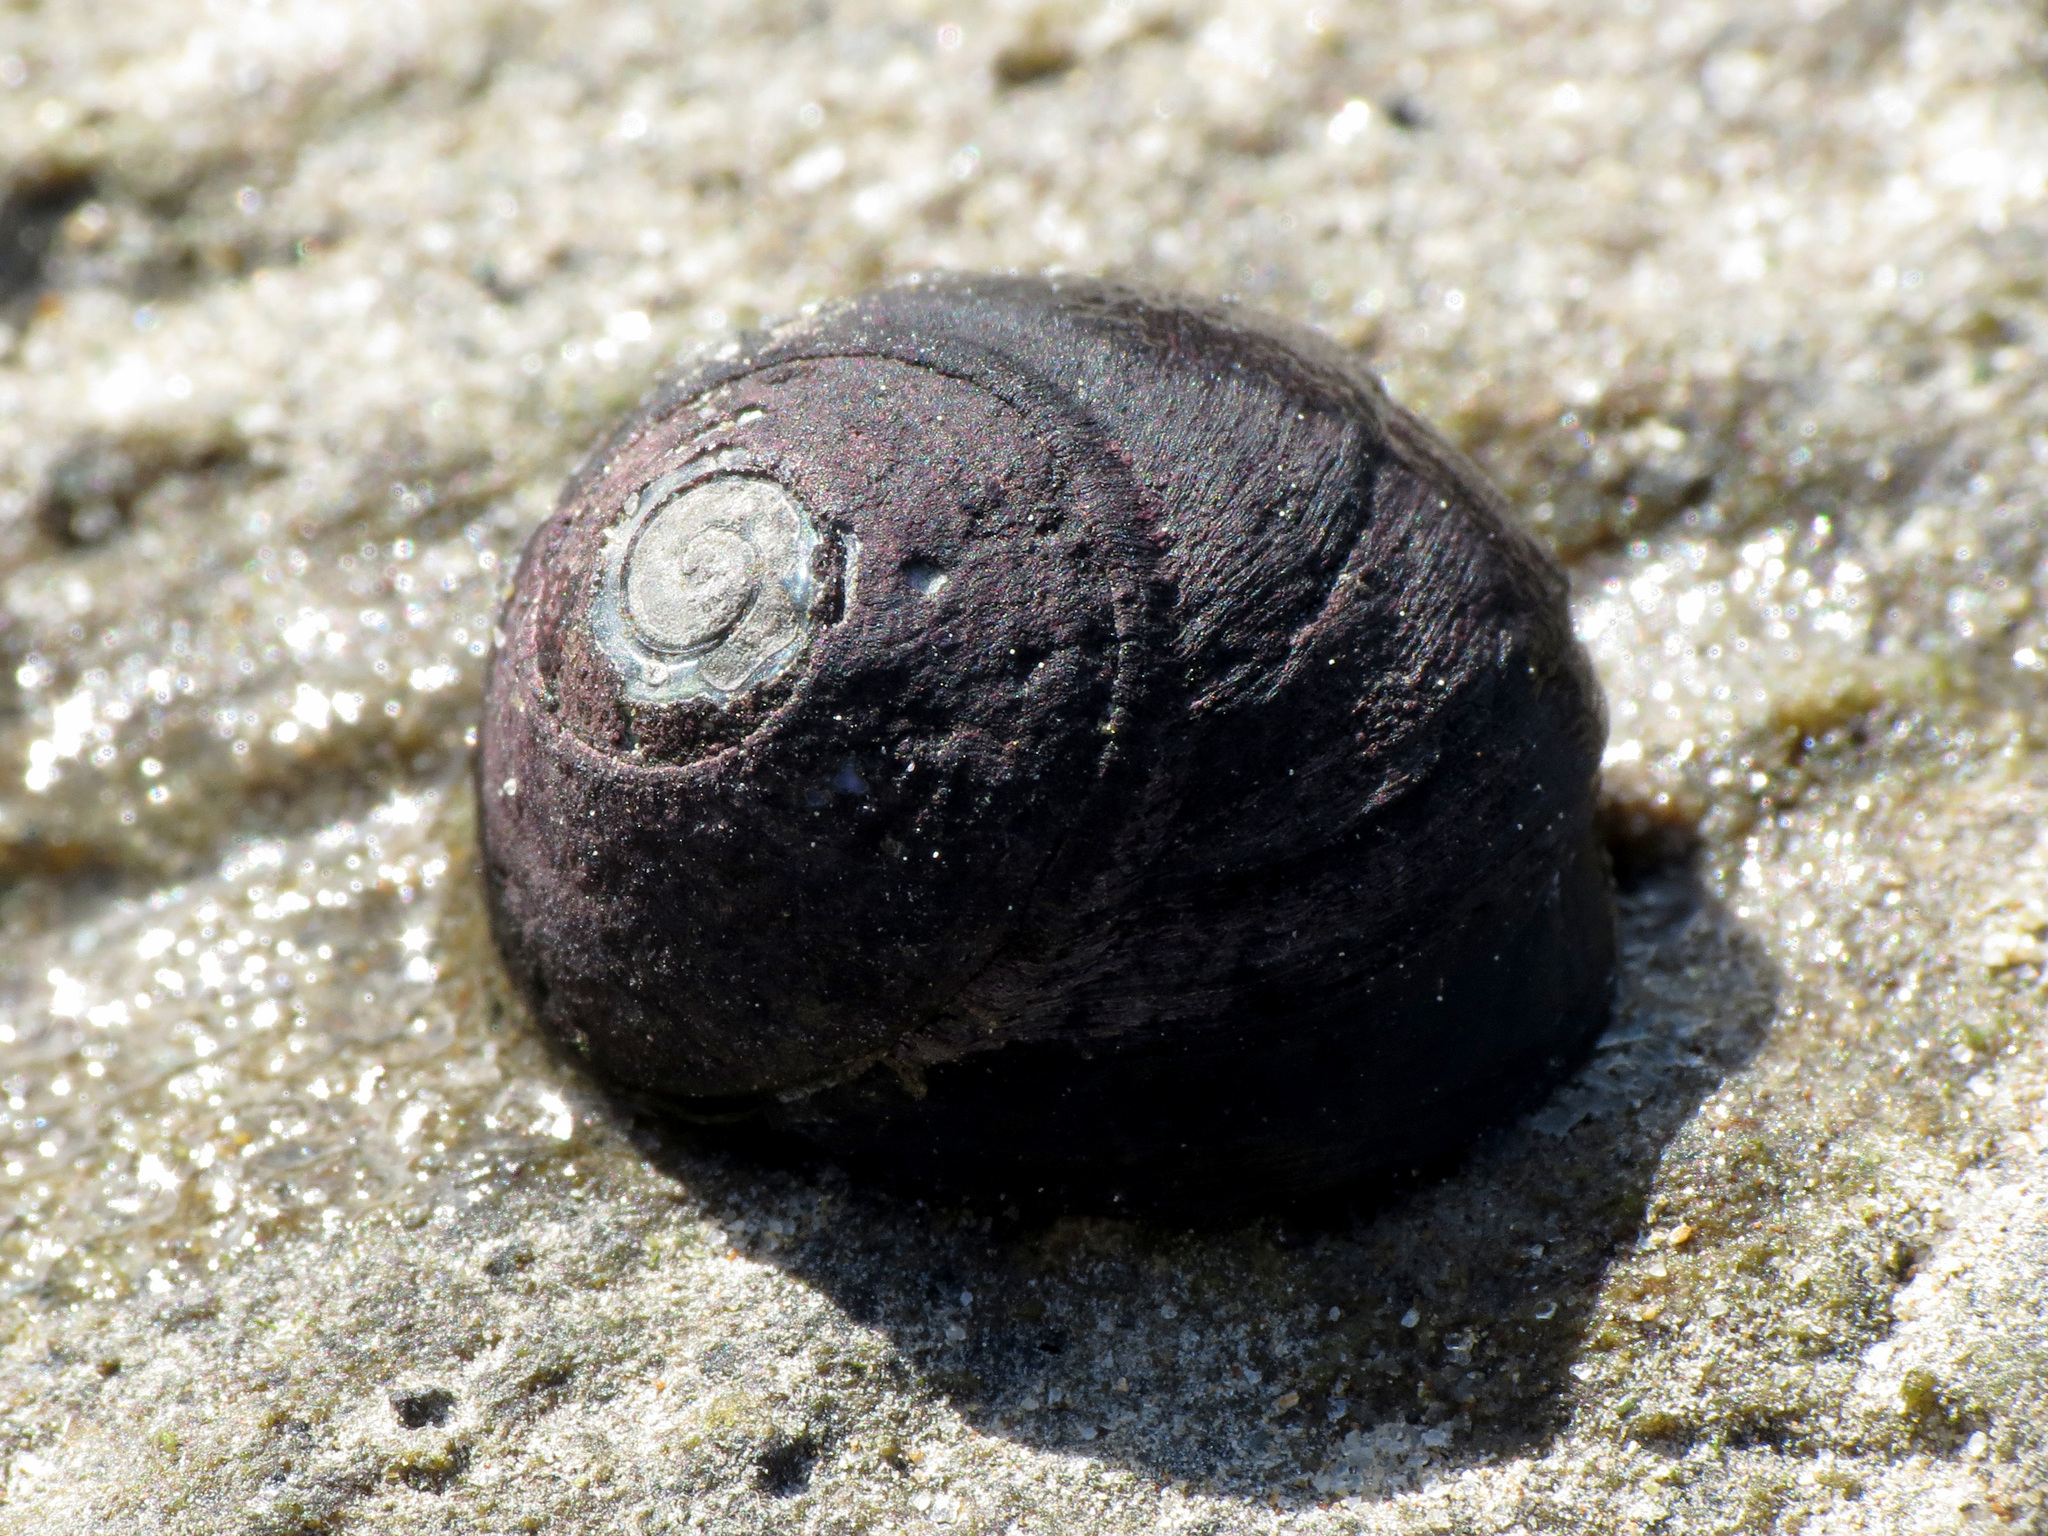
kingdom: Animalia
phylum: Mollusca
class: Gastropoda
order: Trochida
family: Trochidae
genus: Diloma
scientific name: Diloma aridum
